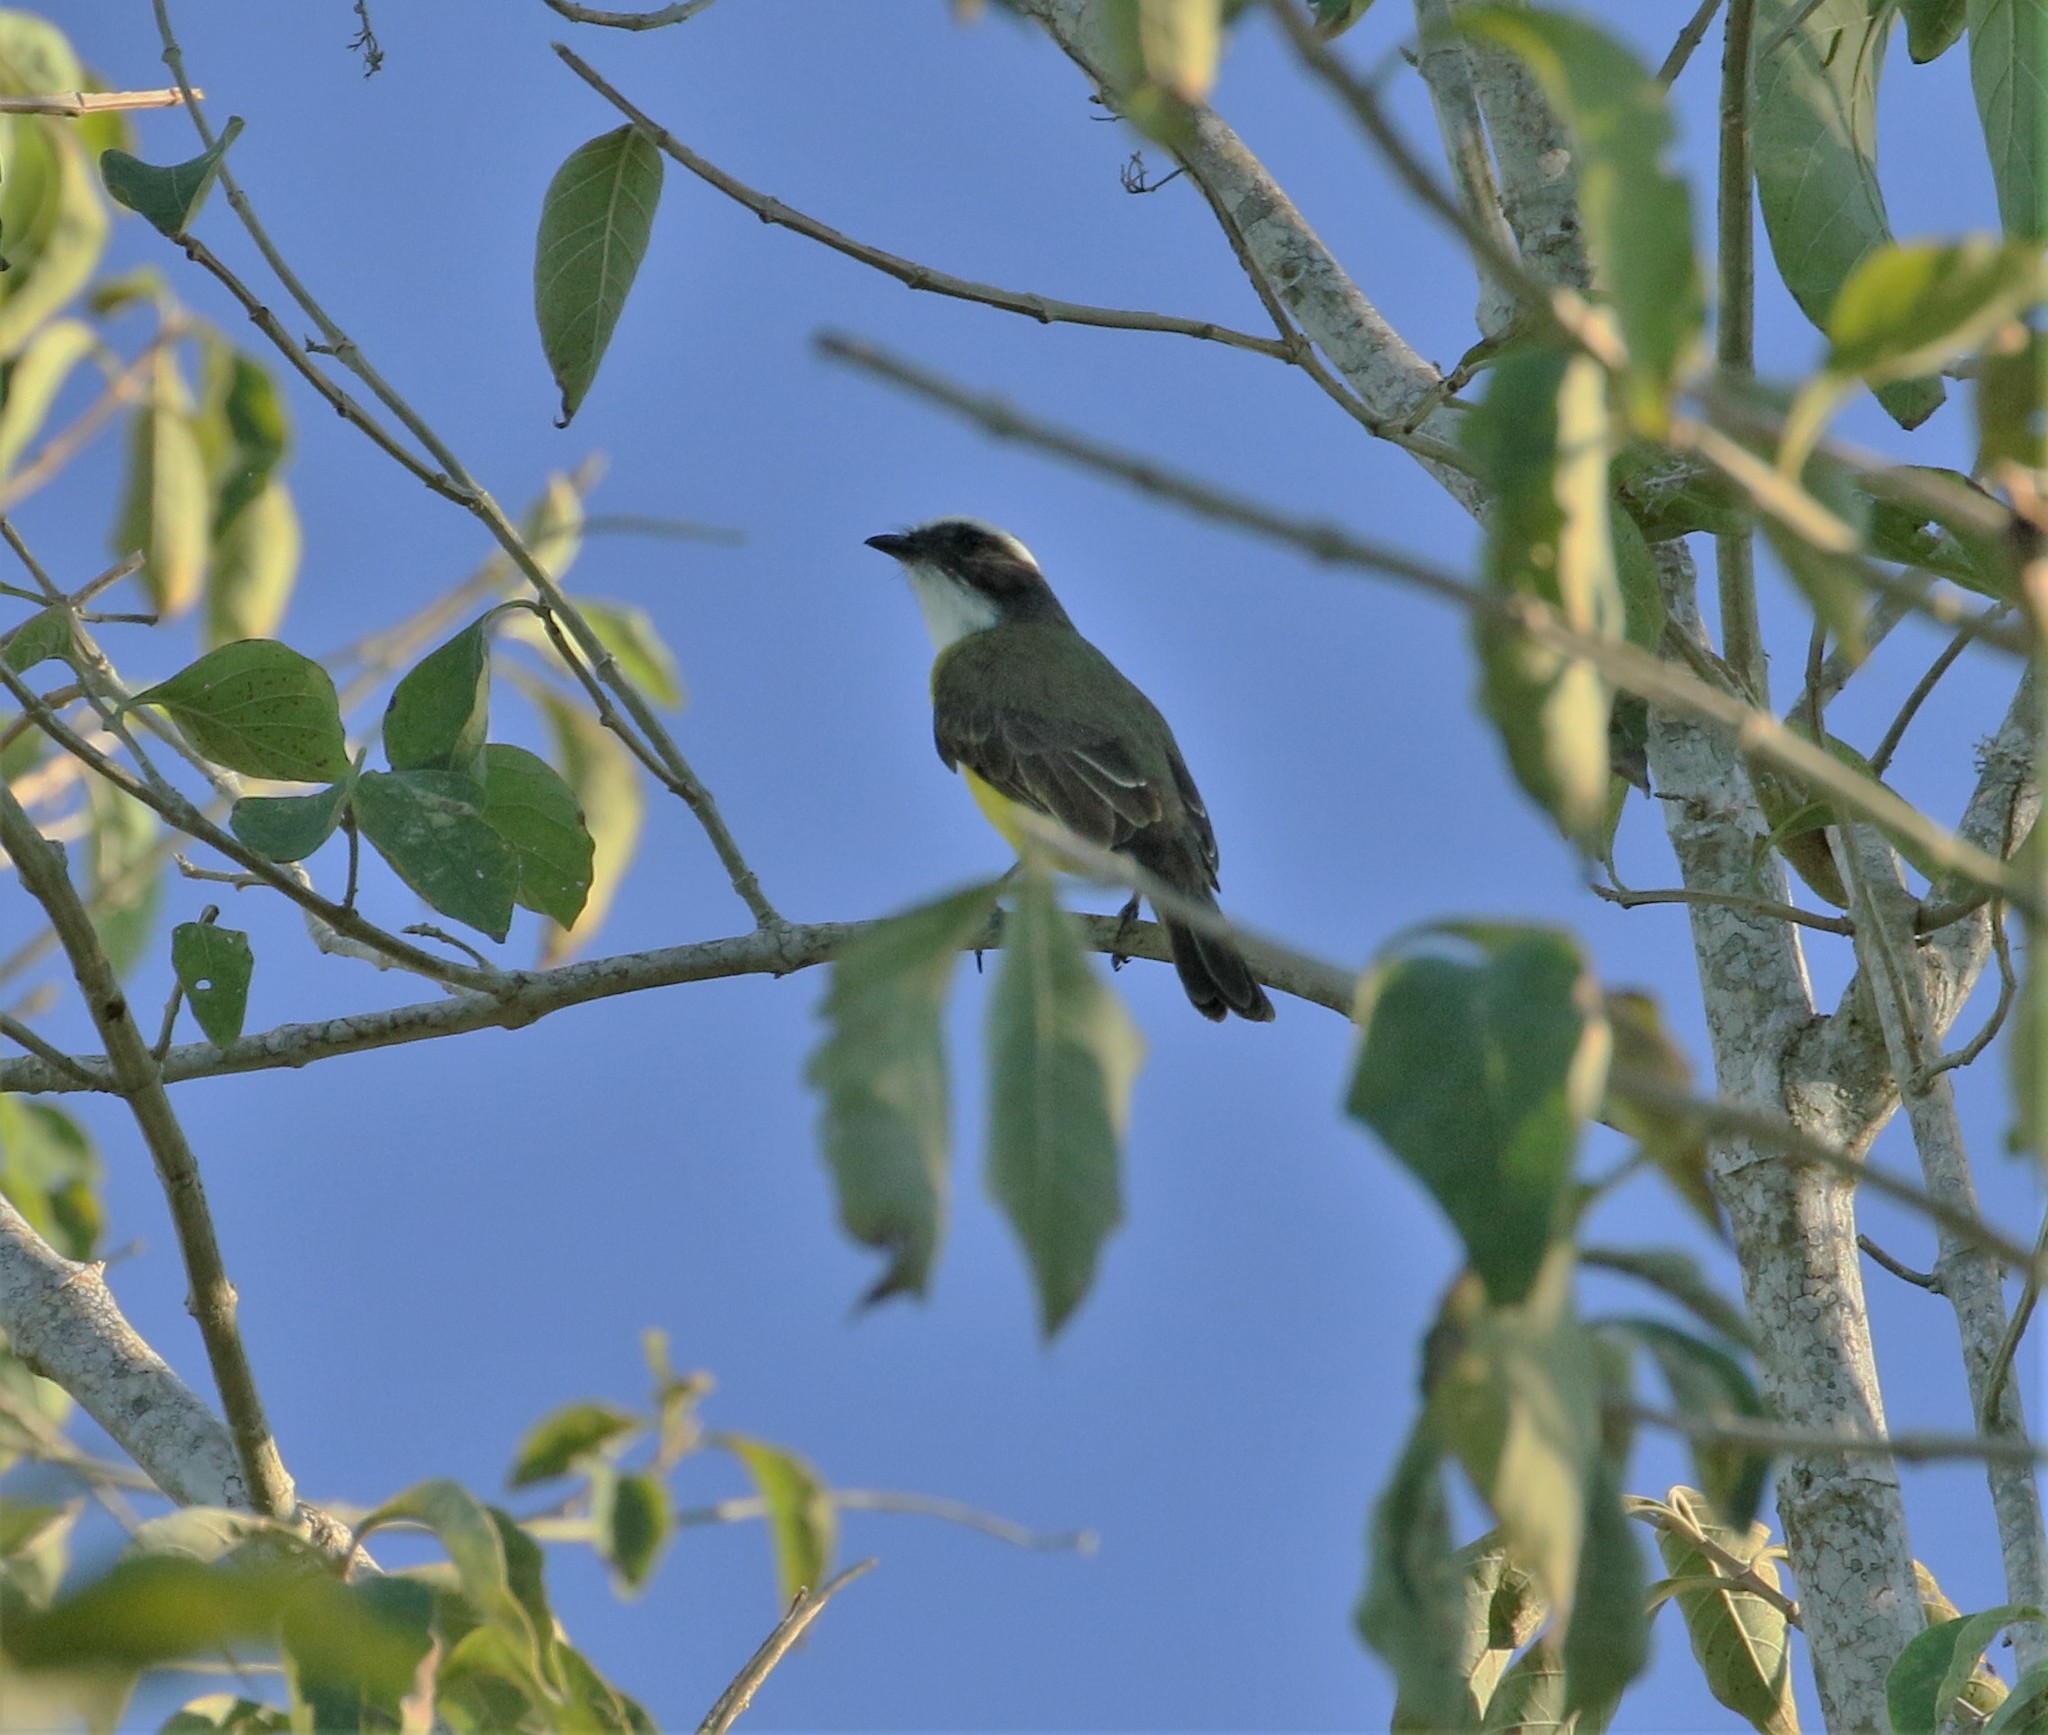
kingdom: Animalia
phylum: Chordata
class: Aves
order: Passeriformes
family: Tyrannidae
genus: Myiozetetes
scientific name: Myiozetetes similis
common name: Social flycatcher
